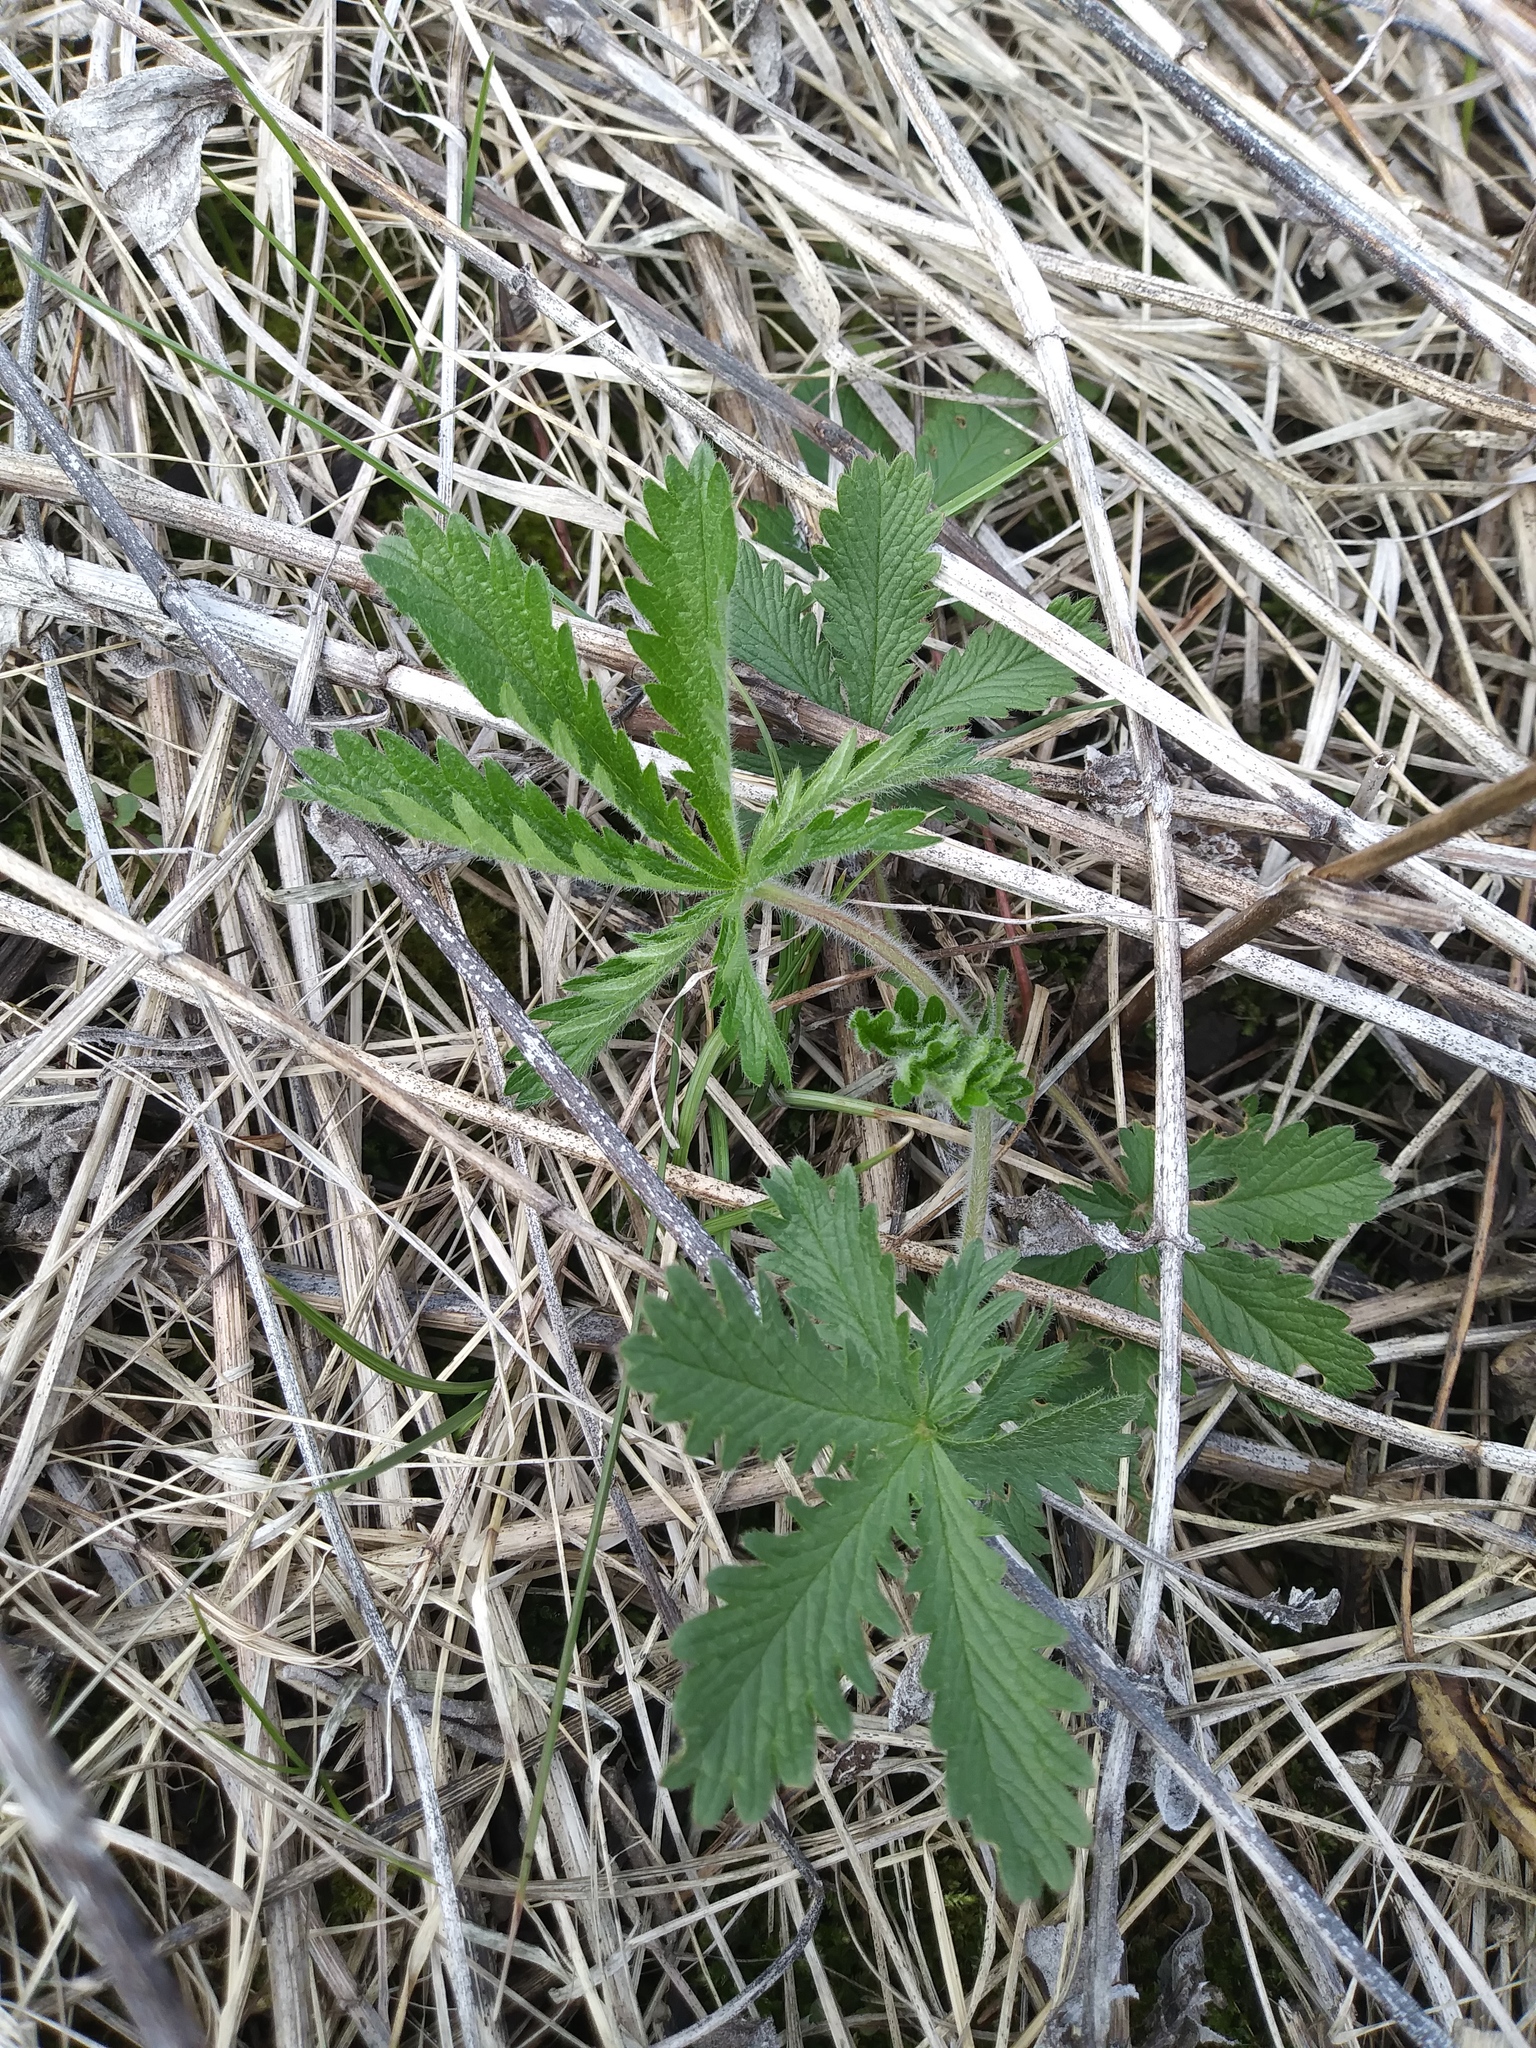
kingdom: Plantae
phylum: Tracheophyta
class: Magnoliopsida
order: Rosales
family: Rosaceae
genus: Potentilla
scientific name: Potentilla recta
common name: Sulphur cinquefoil
